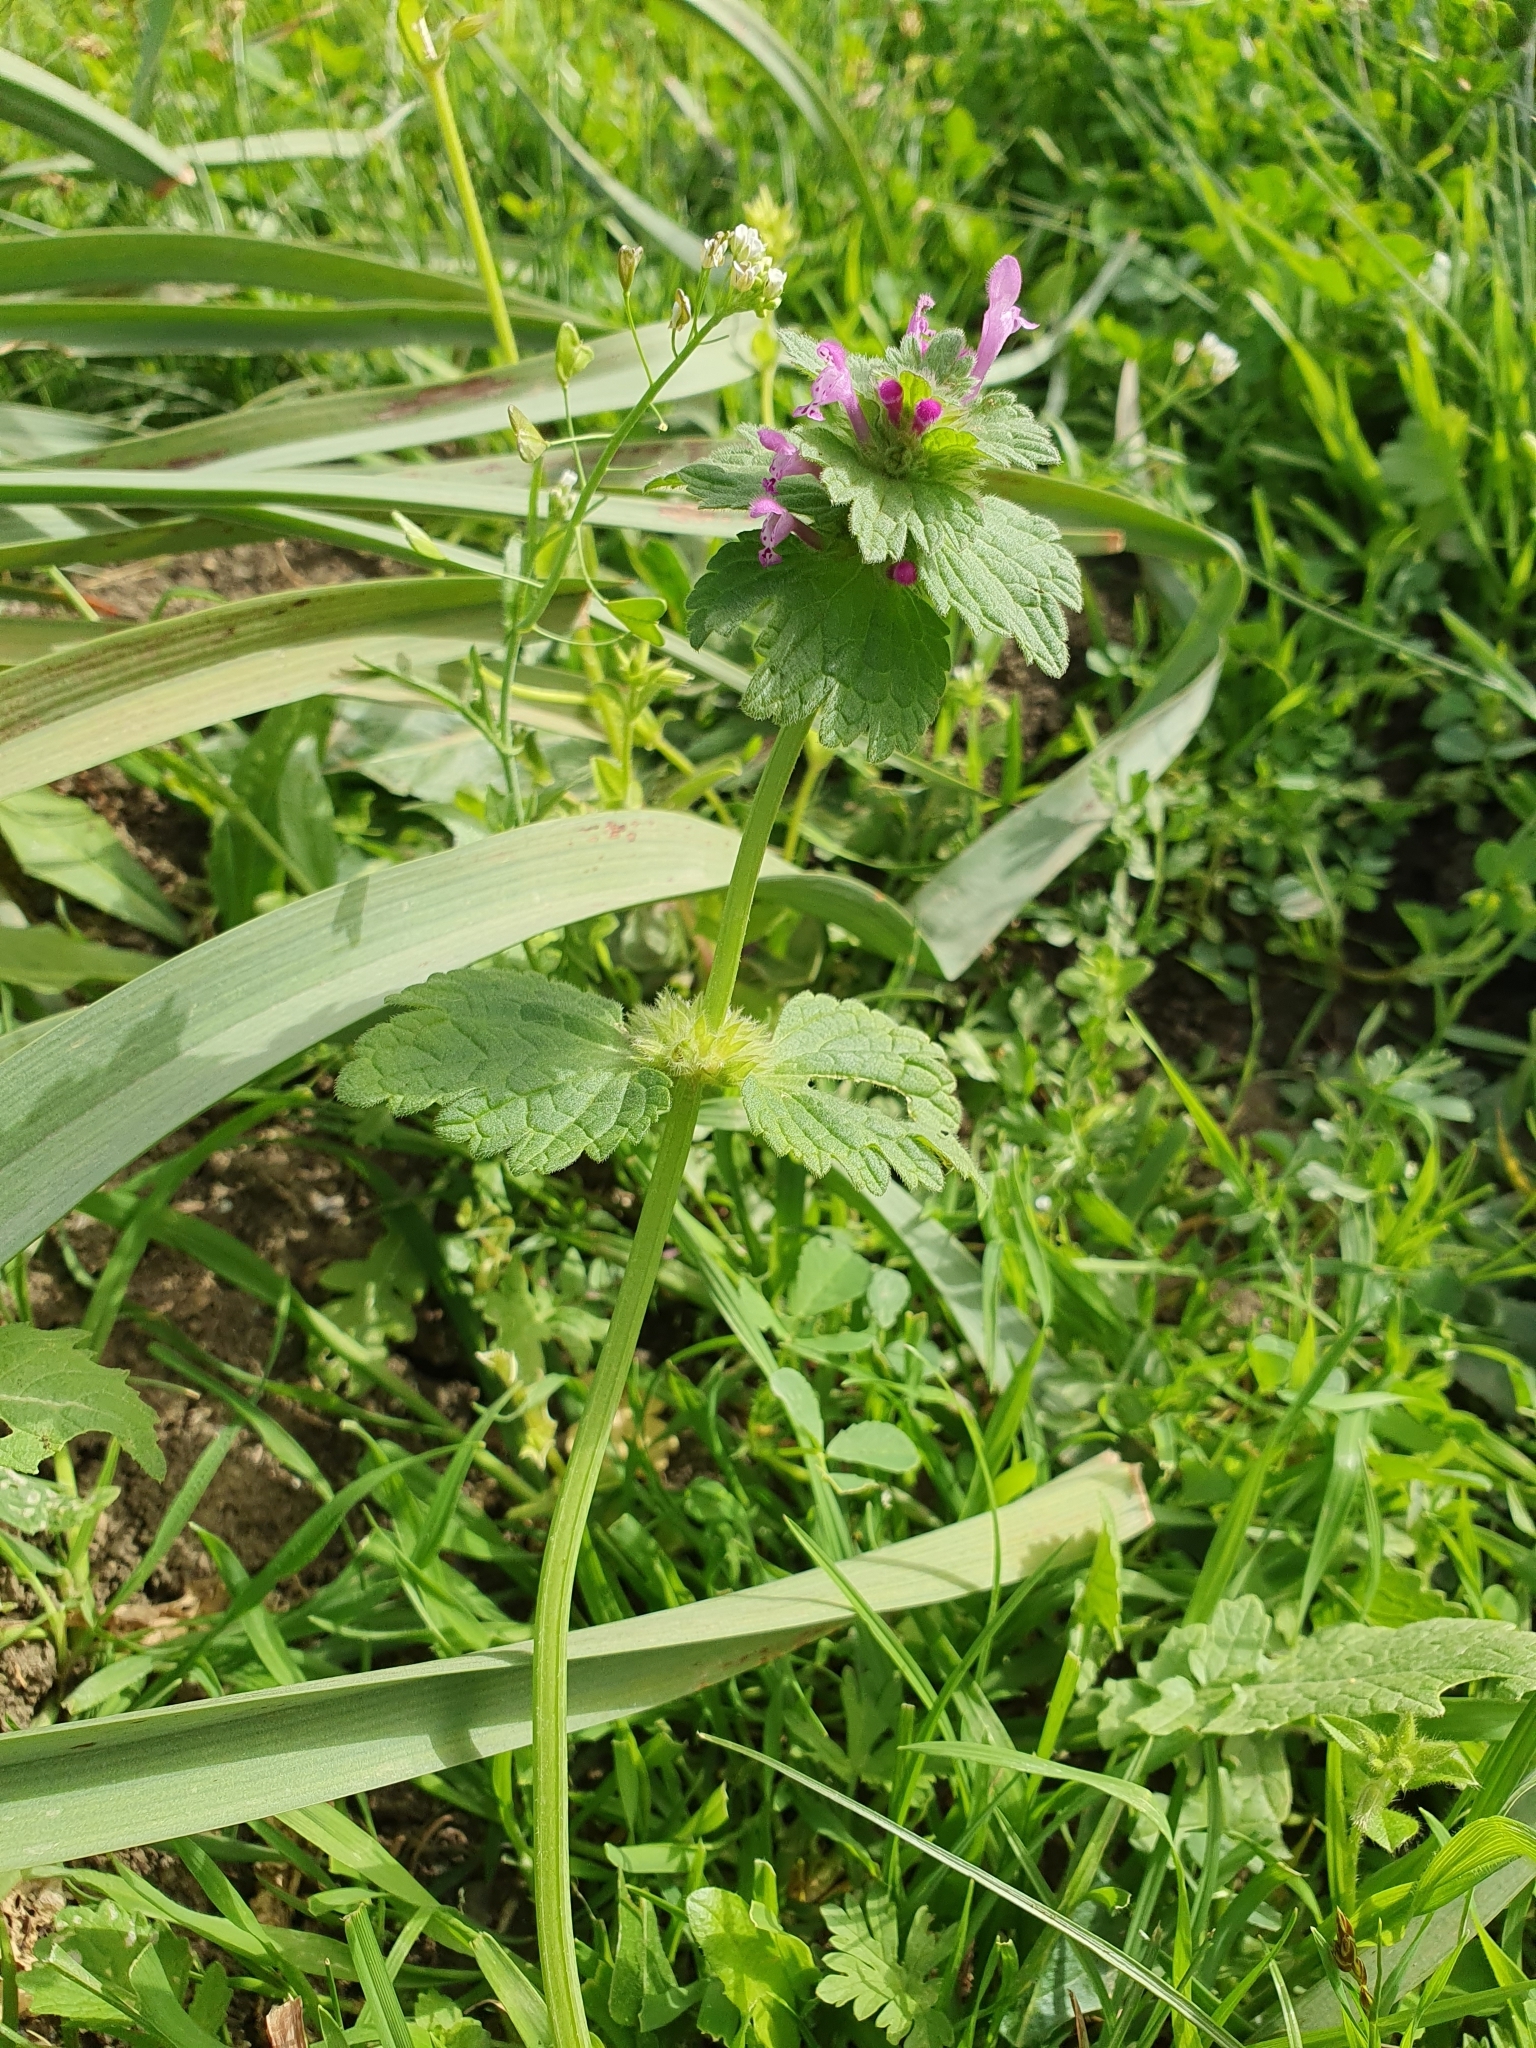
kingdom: Plantae
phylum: Tracheophyta
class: Magnoliopsida
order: Lamiales
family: Lamiaceae
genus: Lamium
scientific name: Lamium amplexicaule
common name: Henbit dead-nettle
